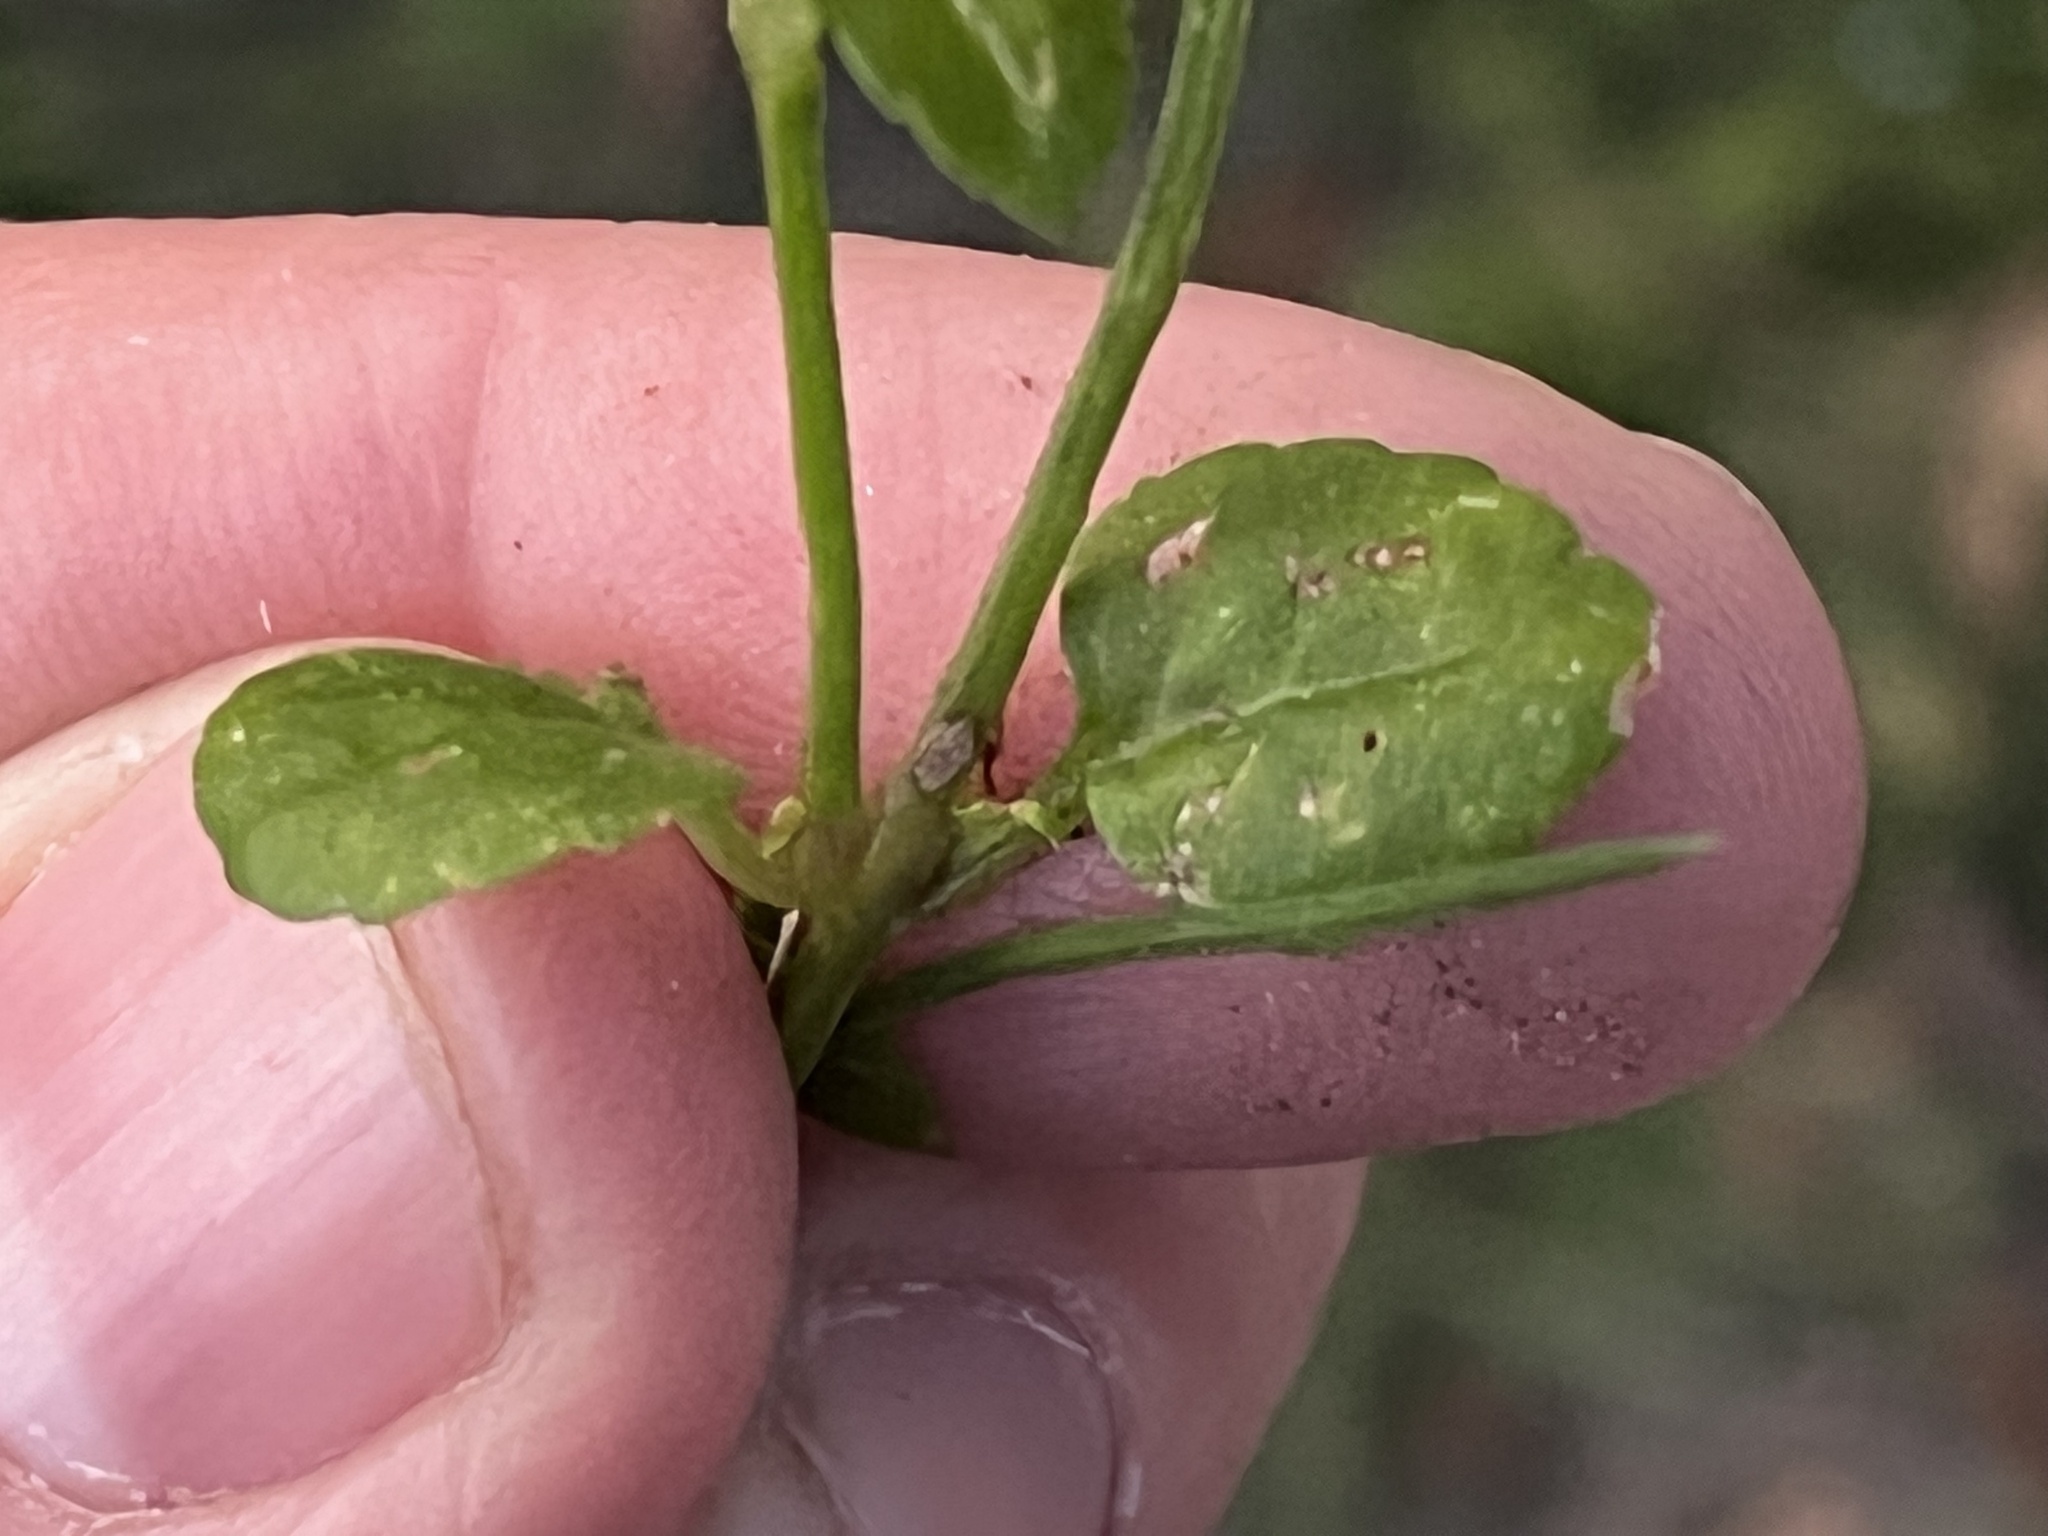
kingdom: Plantae
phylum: Tracheophyta
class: Magnoliopsida
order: Lamiales
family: Linderniaceae
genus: Torenia
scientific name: Torenia crustacea
